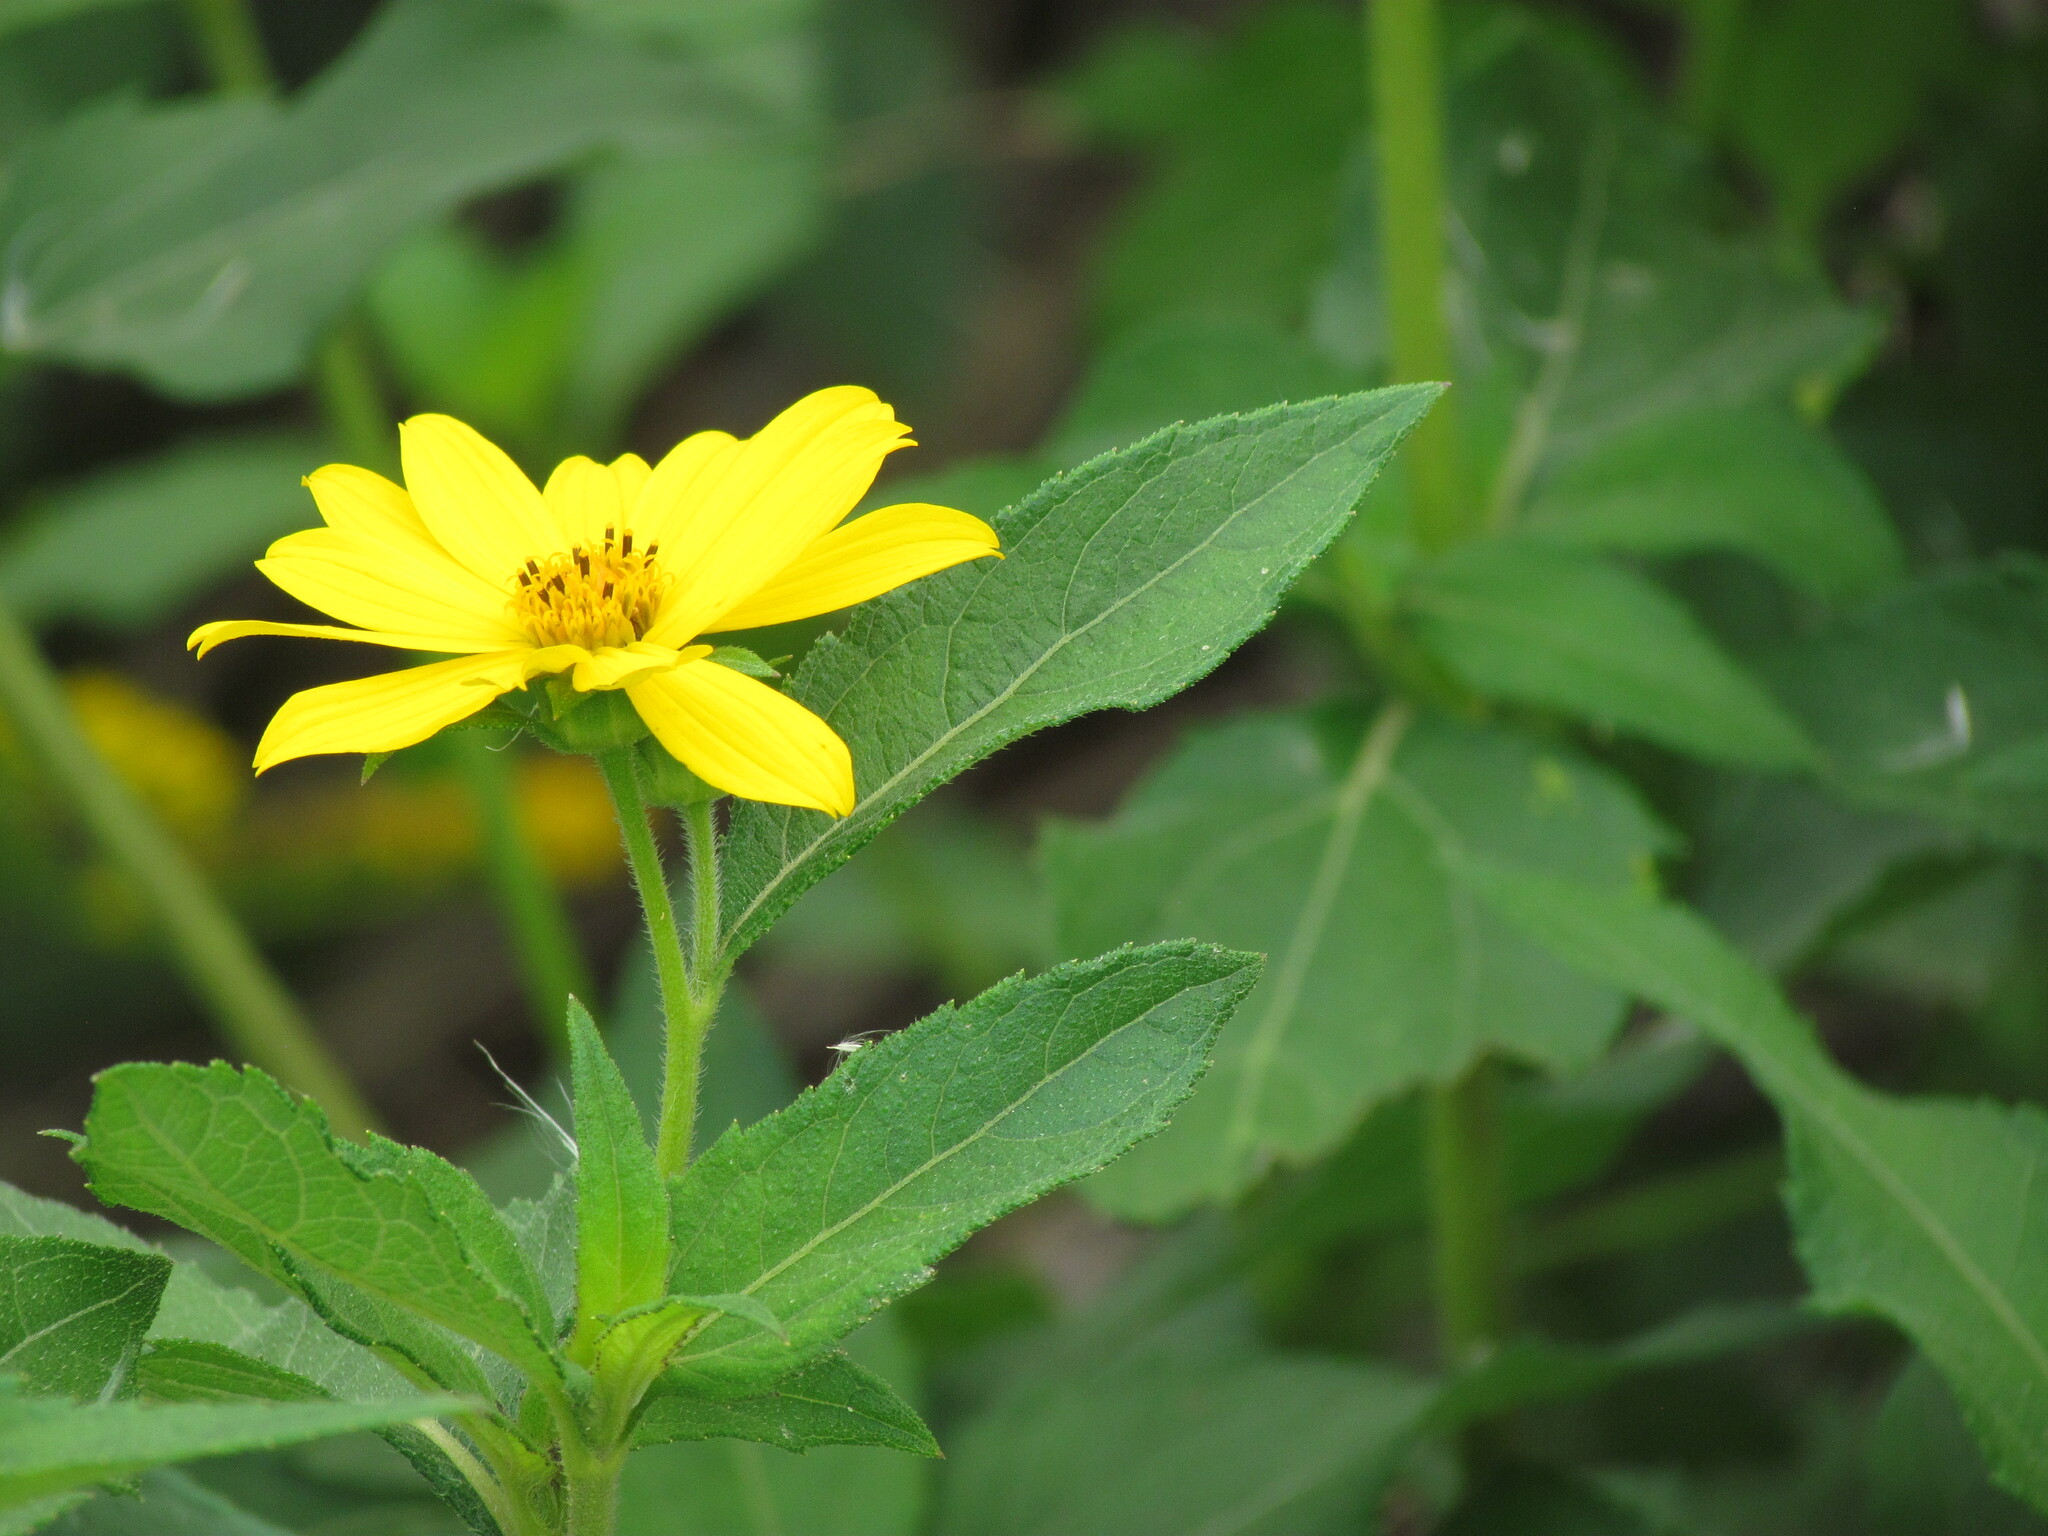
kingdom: Plantae
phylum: Tracheophyta
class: Magnoliopsida
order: Asterales
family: Asteraceae
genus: Wedelia
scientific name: Wedelia silphioides
